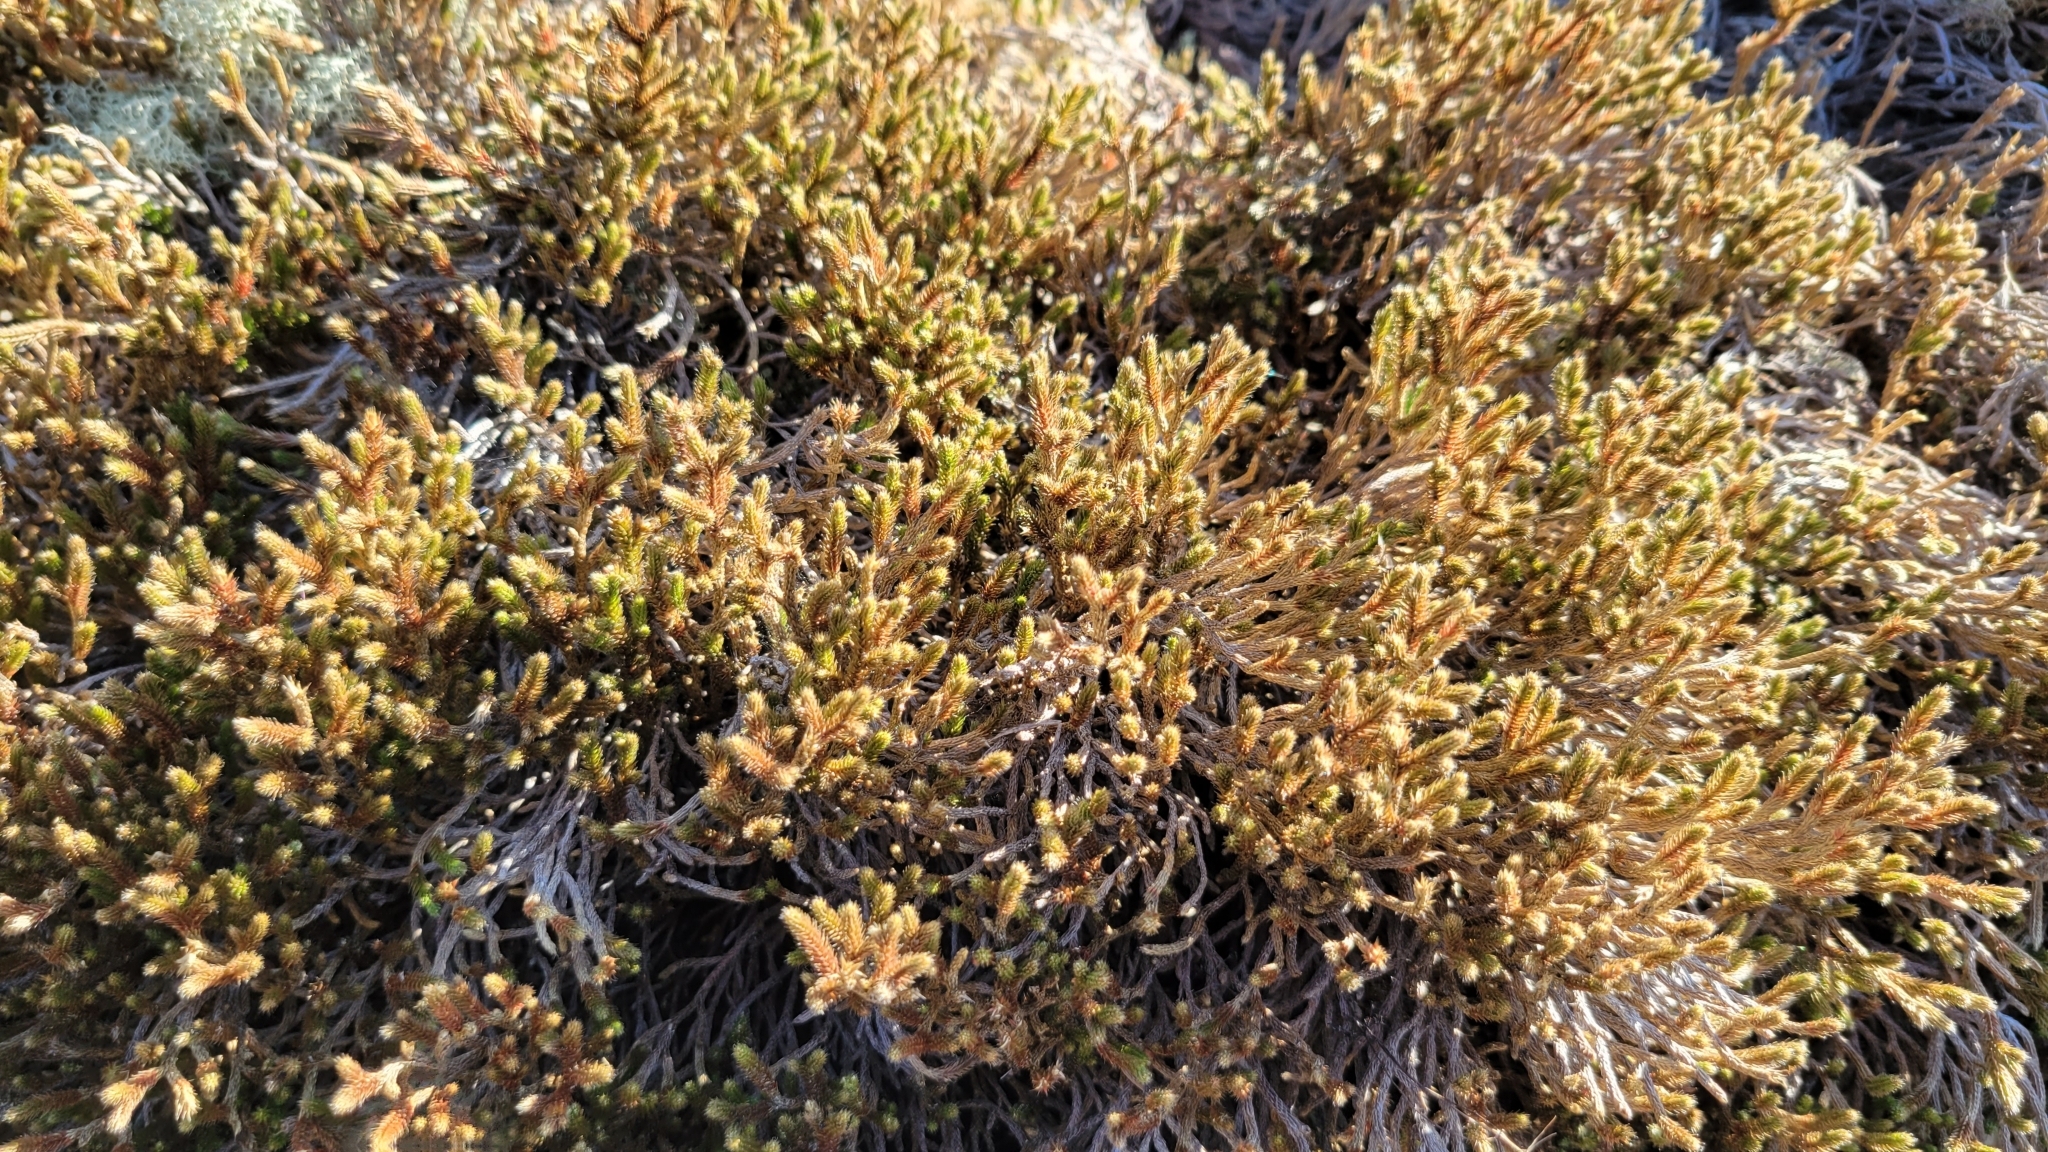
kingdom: Plantae
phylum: Tracheophyta
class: Lycopodiopsida
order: Selaginellales
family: Selaginellaceae
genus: Selaginella
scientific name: Selaginella tortipila
